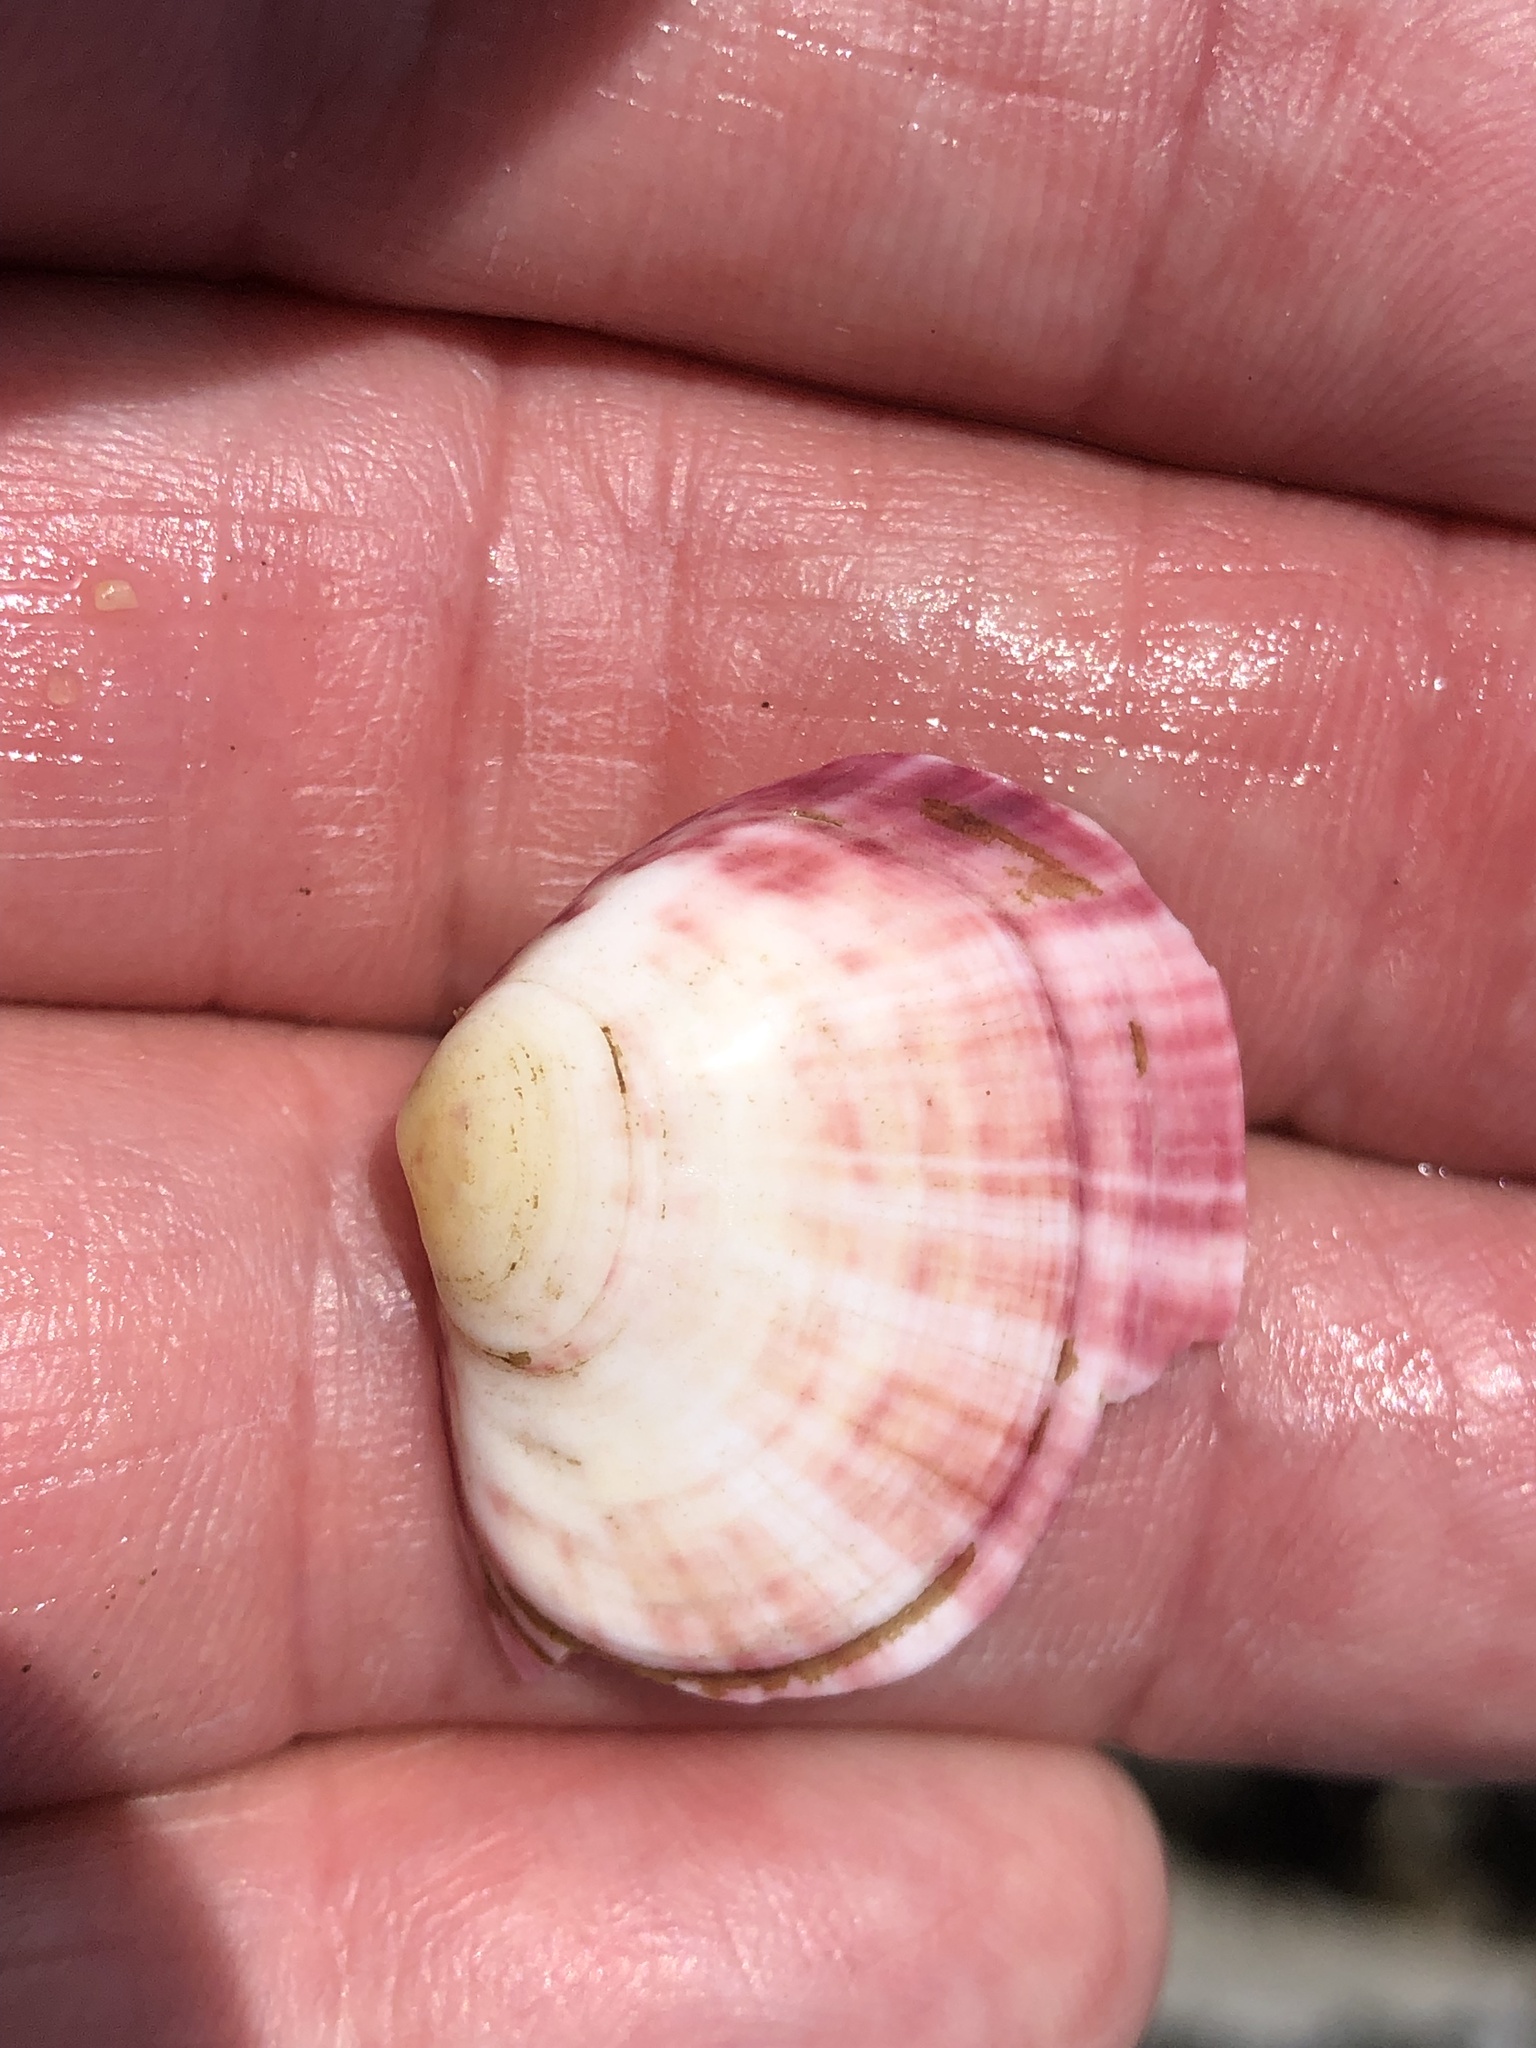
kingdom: Animalia
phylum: Mollusca
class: Bivalvia
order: Cardiida
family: Semelidae
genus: Semele
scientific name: Semele rubropicta
